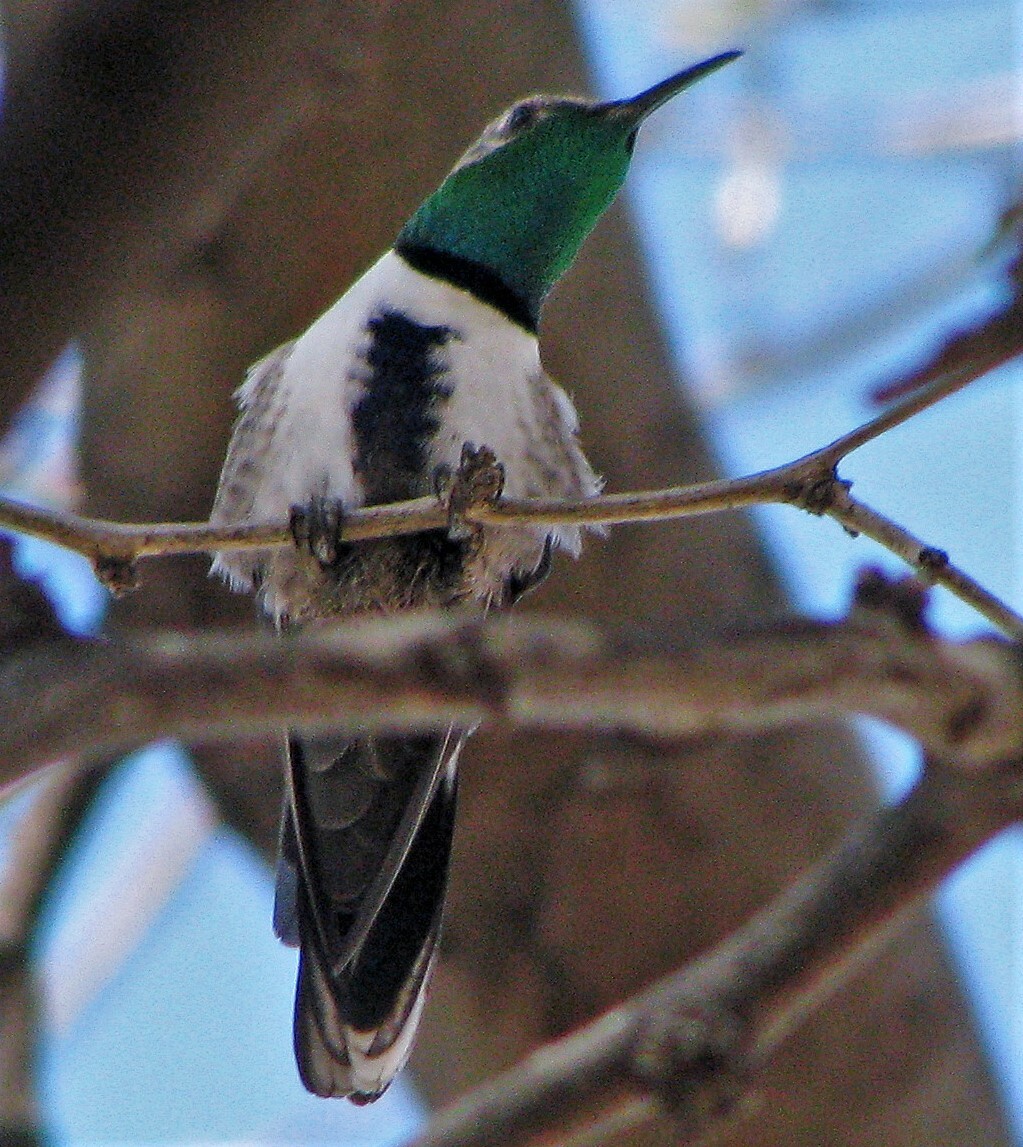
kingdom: Animalia
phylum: Chordata
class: Aves
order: Apodiformes
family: Trochilidae
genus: Oreotrochilus
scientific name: Oreotrochilus leucopleurus
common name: White-sided hillstar
